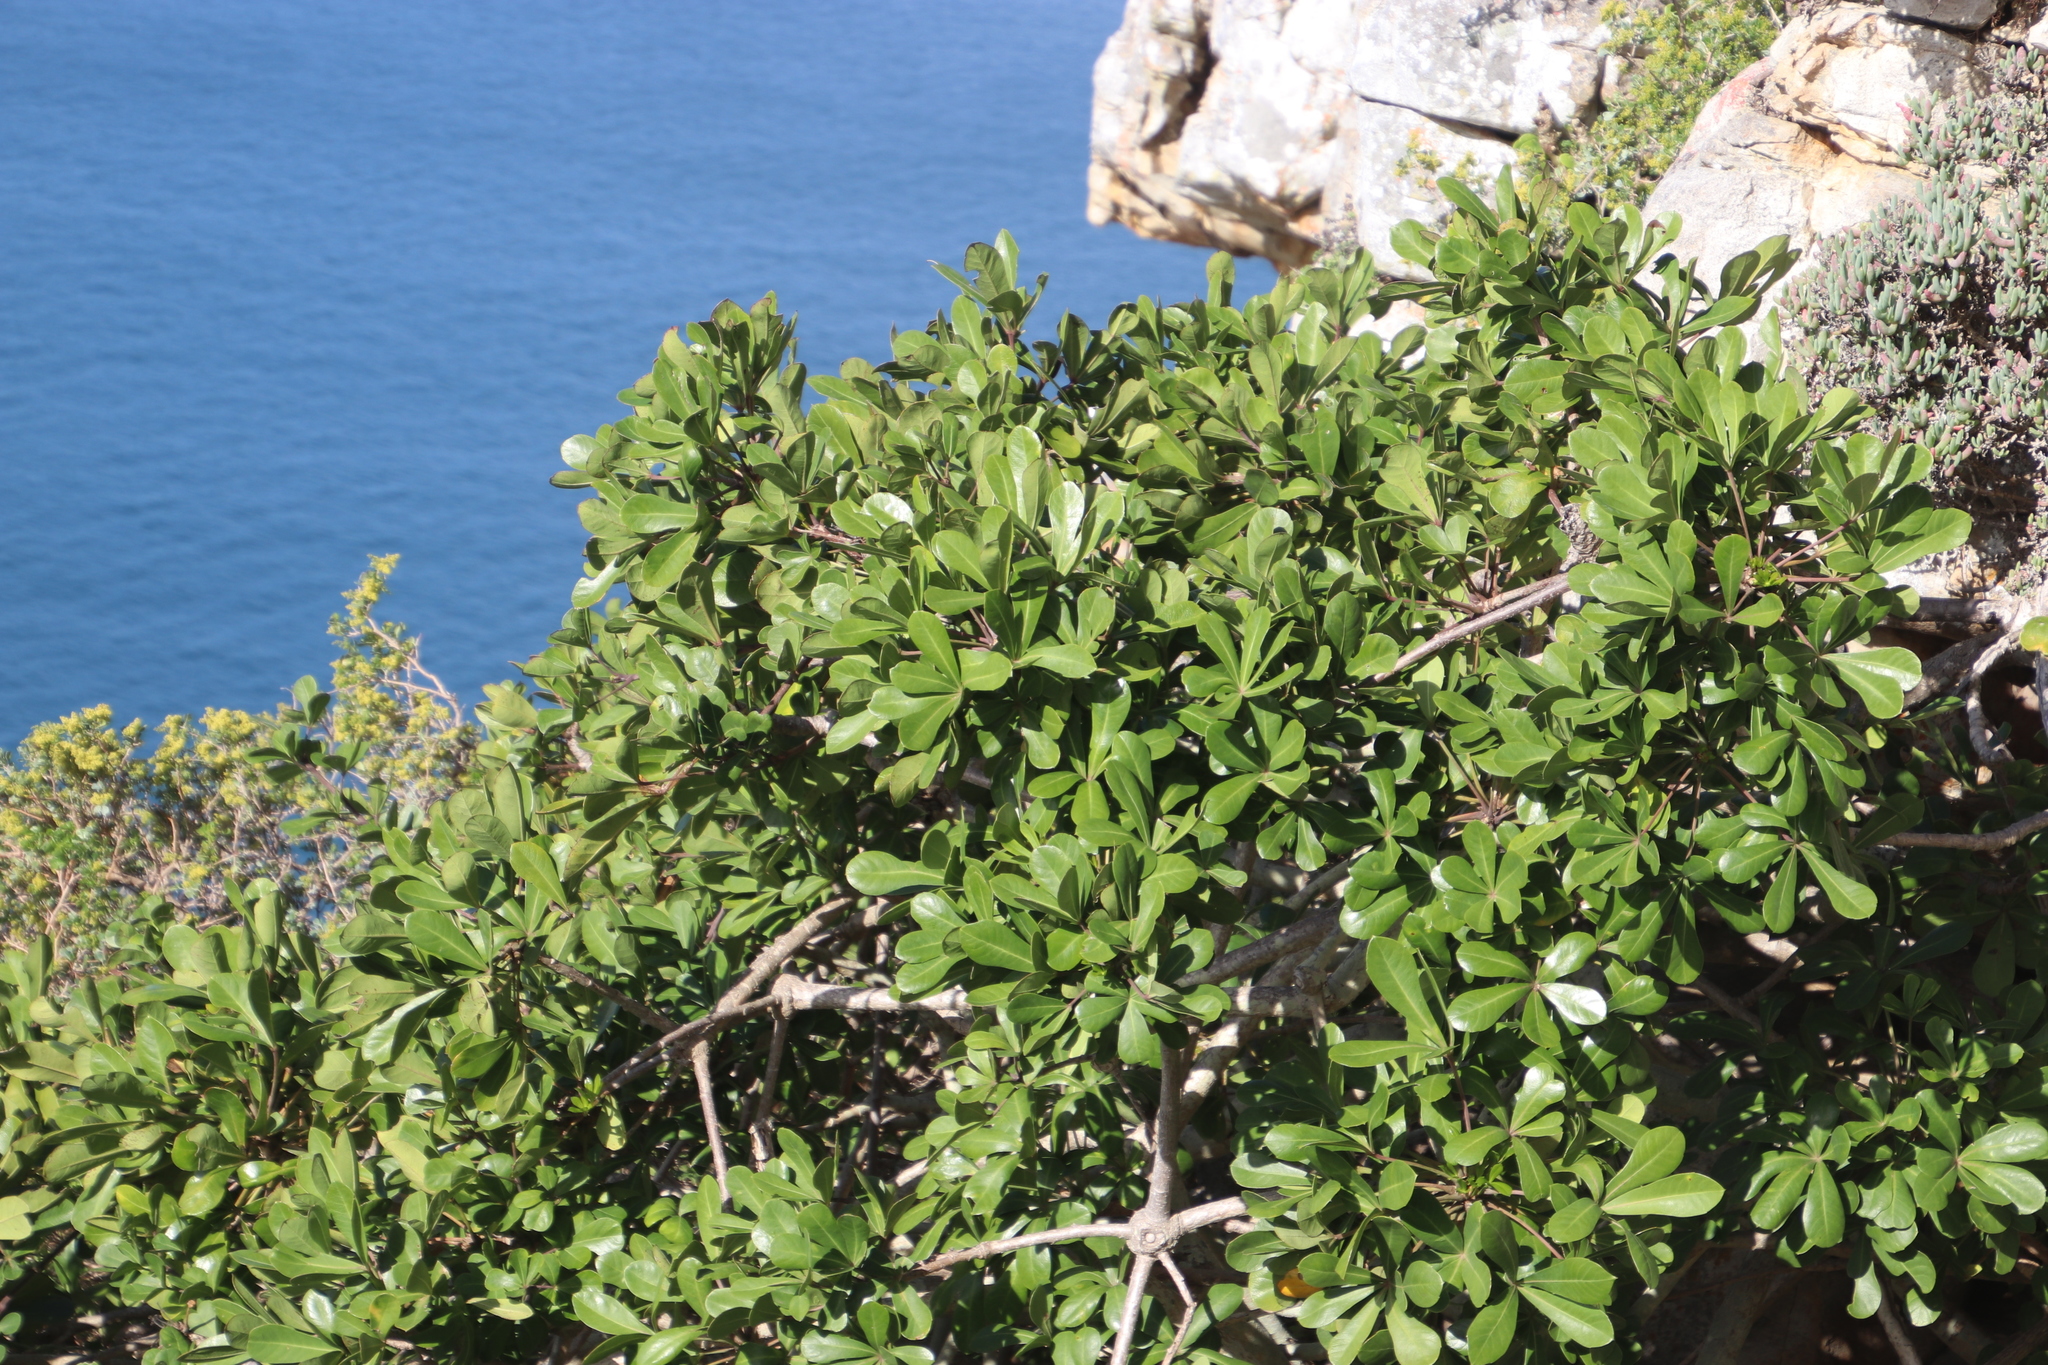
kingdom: Plantae
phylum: Tracheophyta
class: Magnoliopsida
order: Apiales
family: Araliaceae
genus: Cussonia
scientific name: Cussonia thyrsiflora
